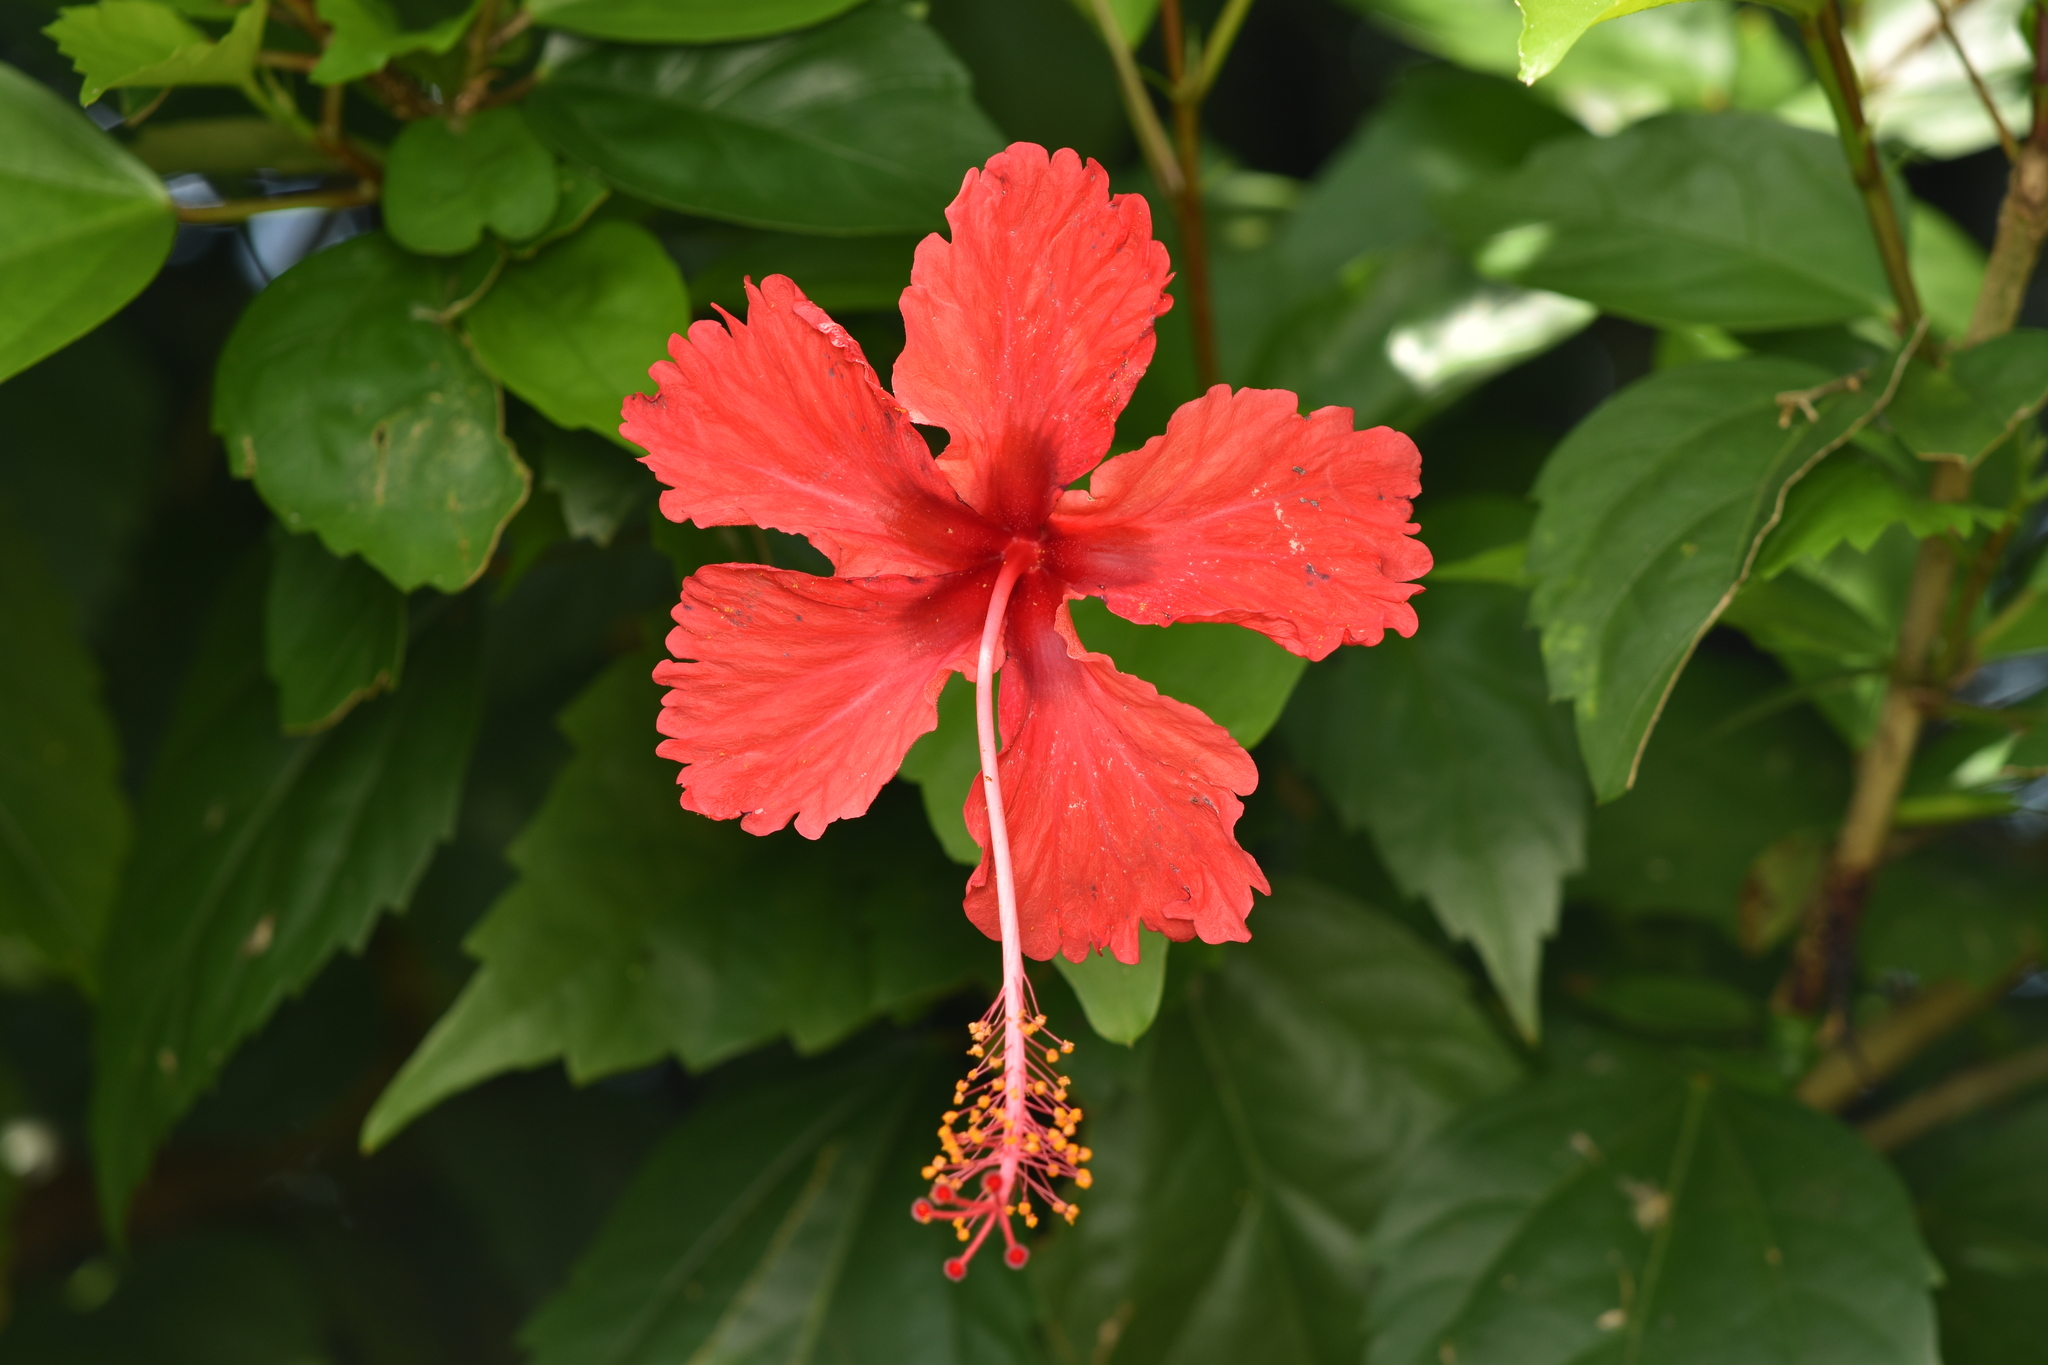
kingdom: Plantae
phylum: Tracheophyta
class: Magnoliopsida
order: Malvales
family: Malvaceae
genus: Hibiscus
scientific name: Hibiscus archeri
